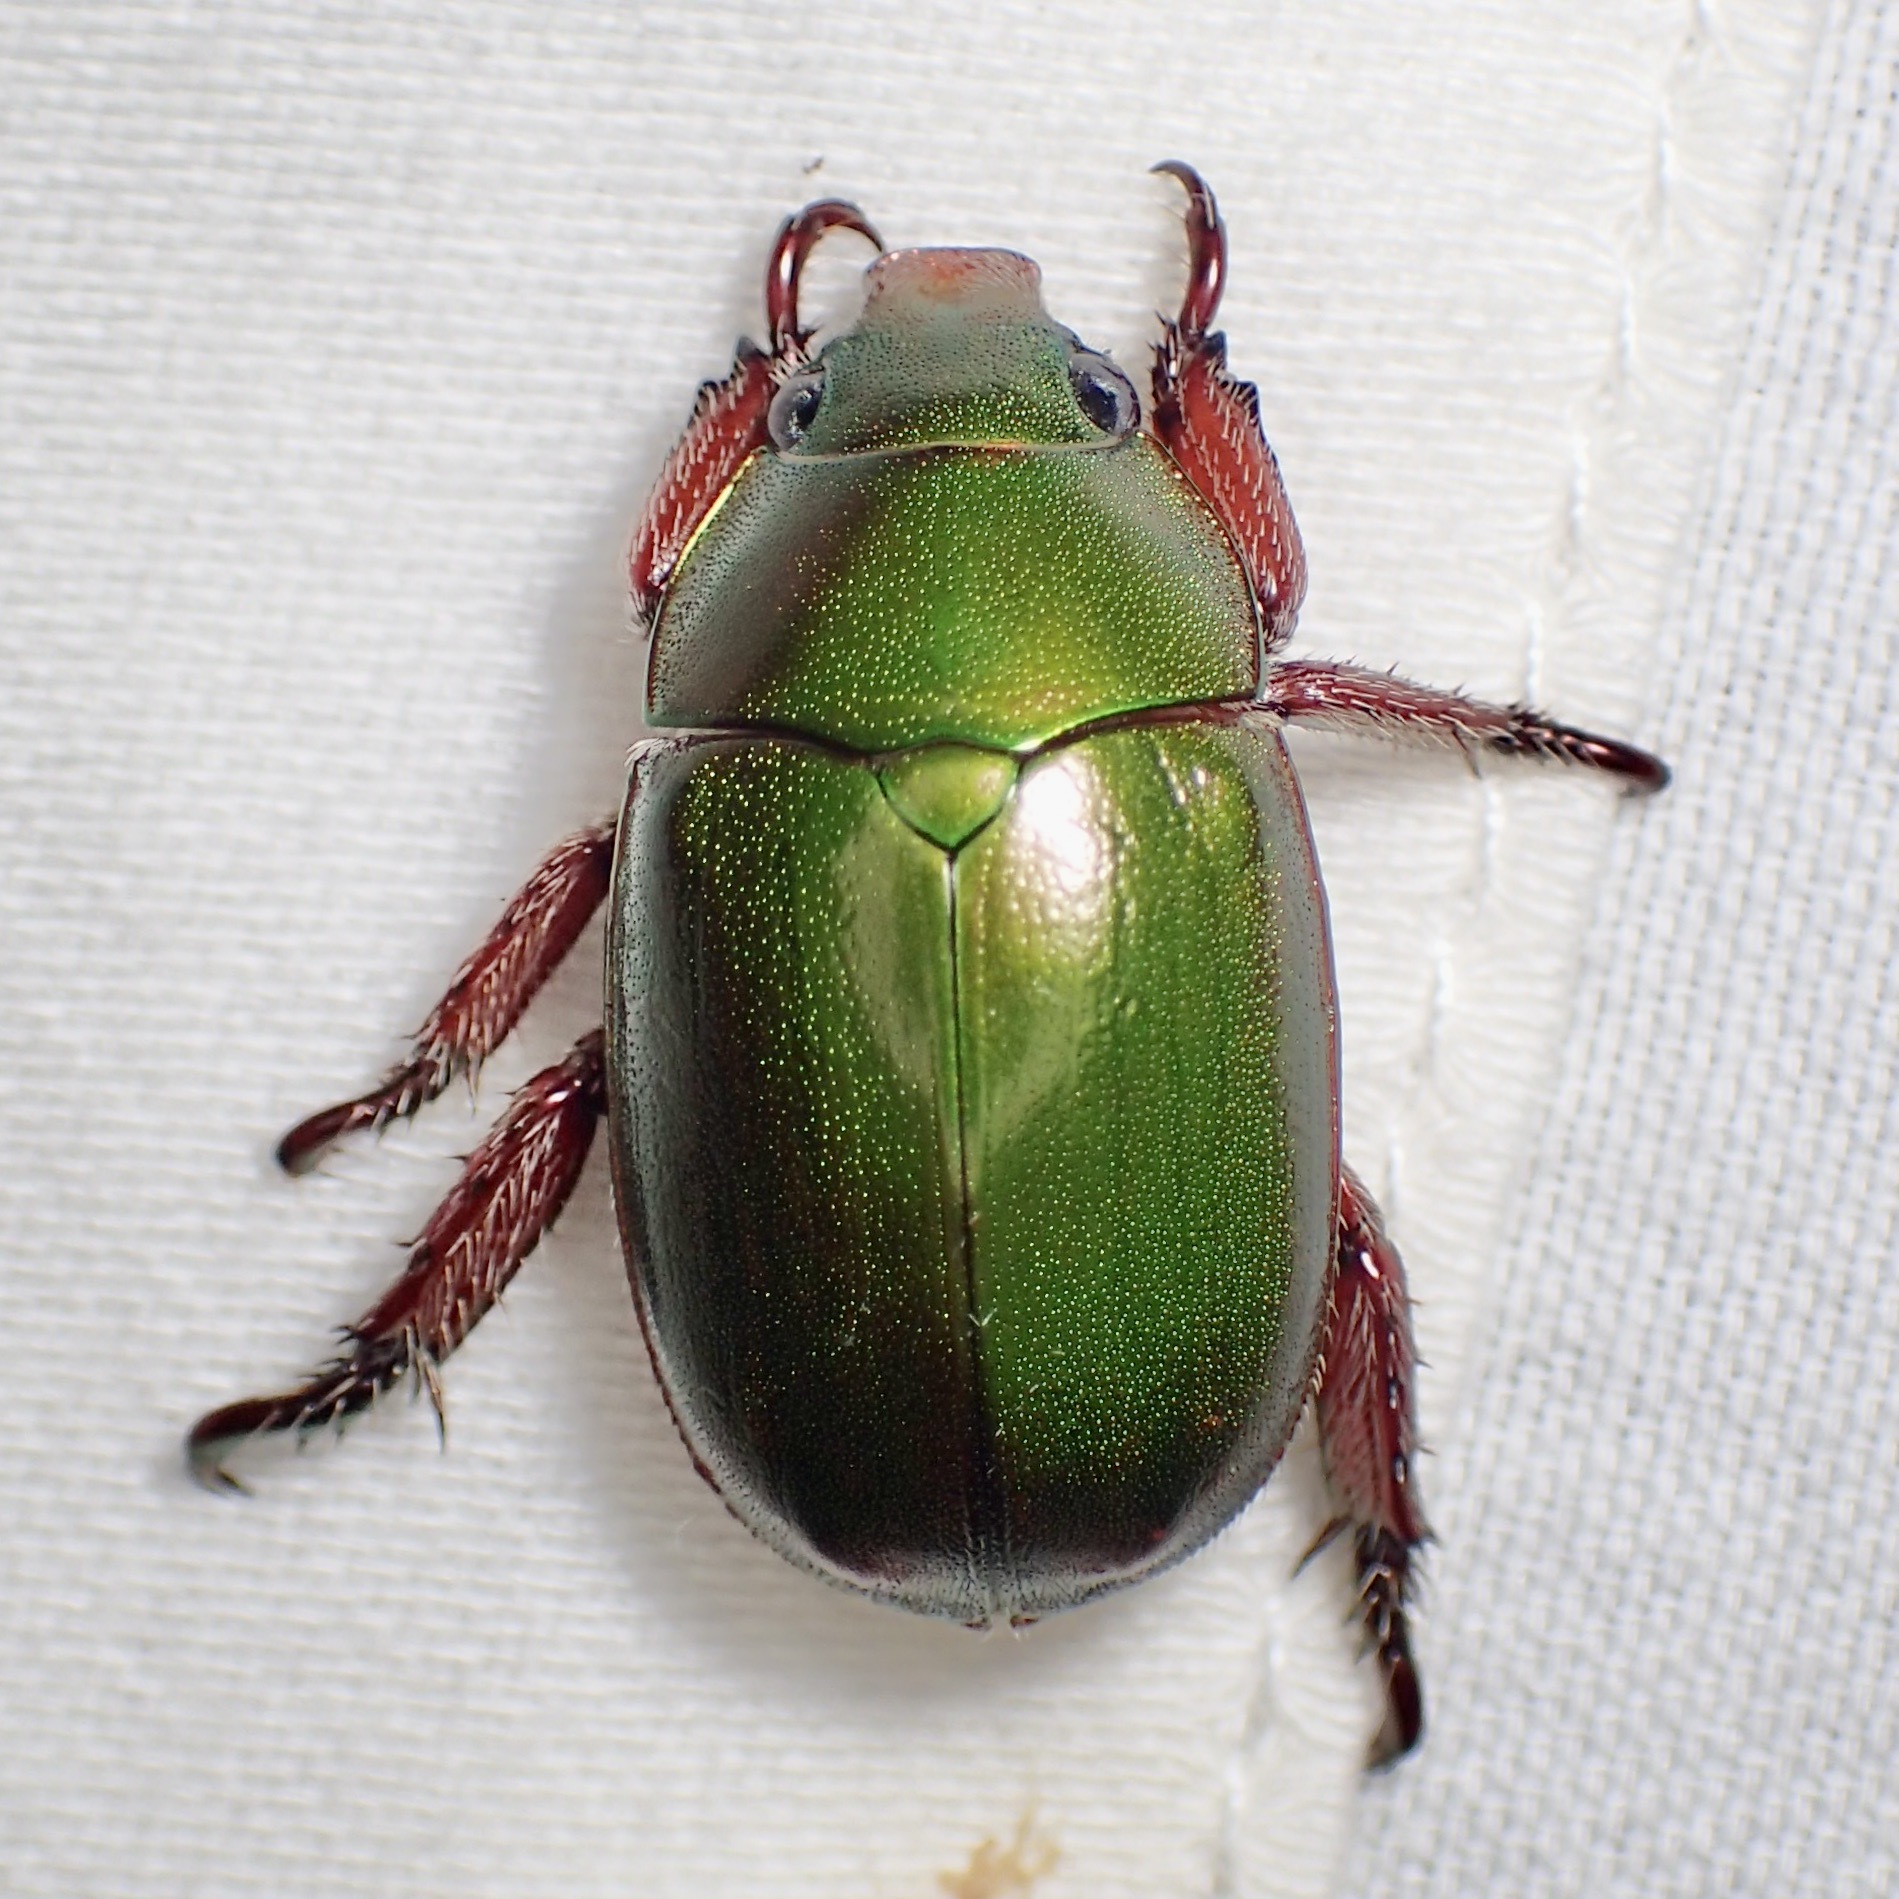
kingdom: Animalia
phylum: Arthropoda
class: Insecta
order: Coleoptera
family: Scarabaeidae
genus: Anoplognathus
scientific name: Anoplognathus punctulatus
